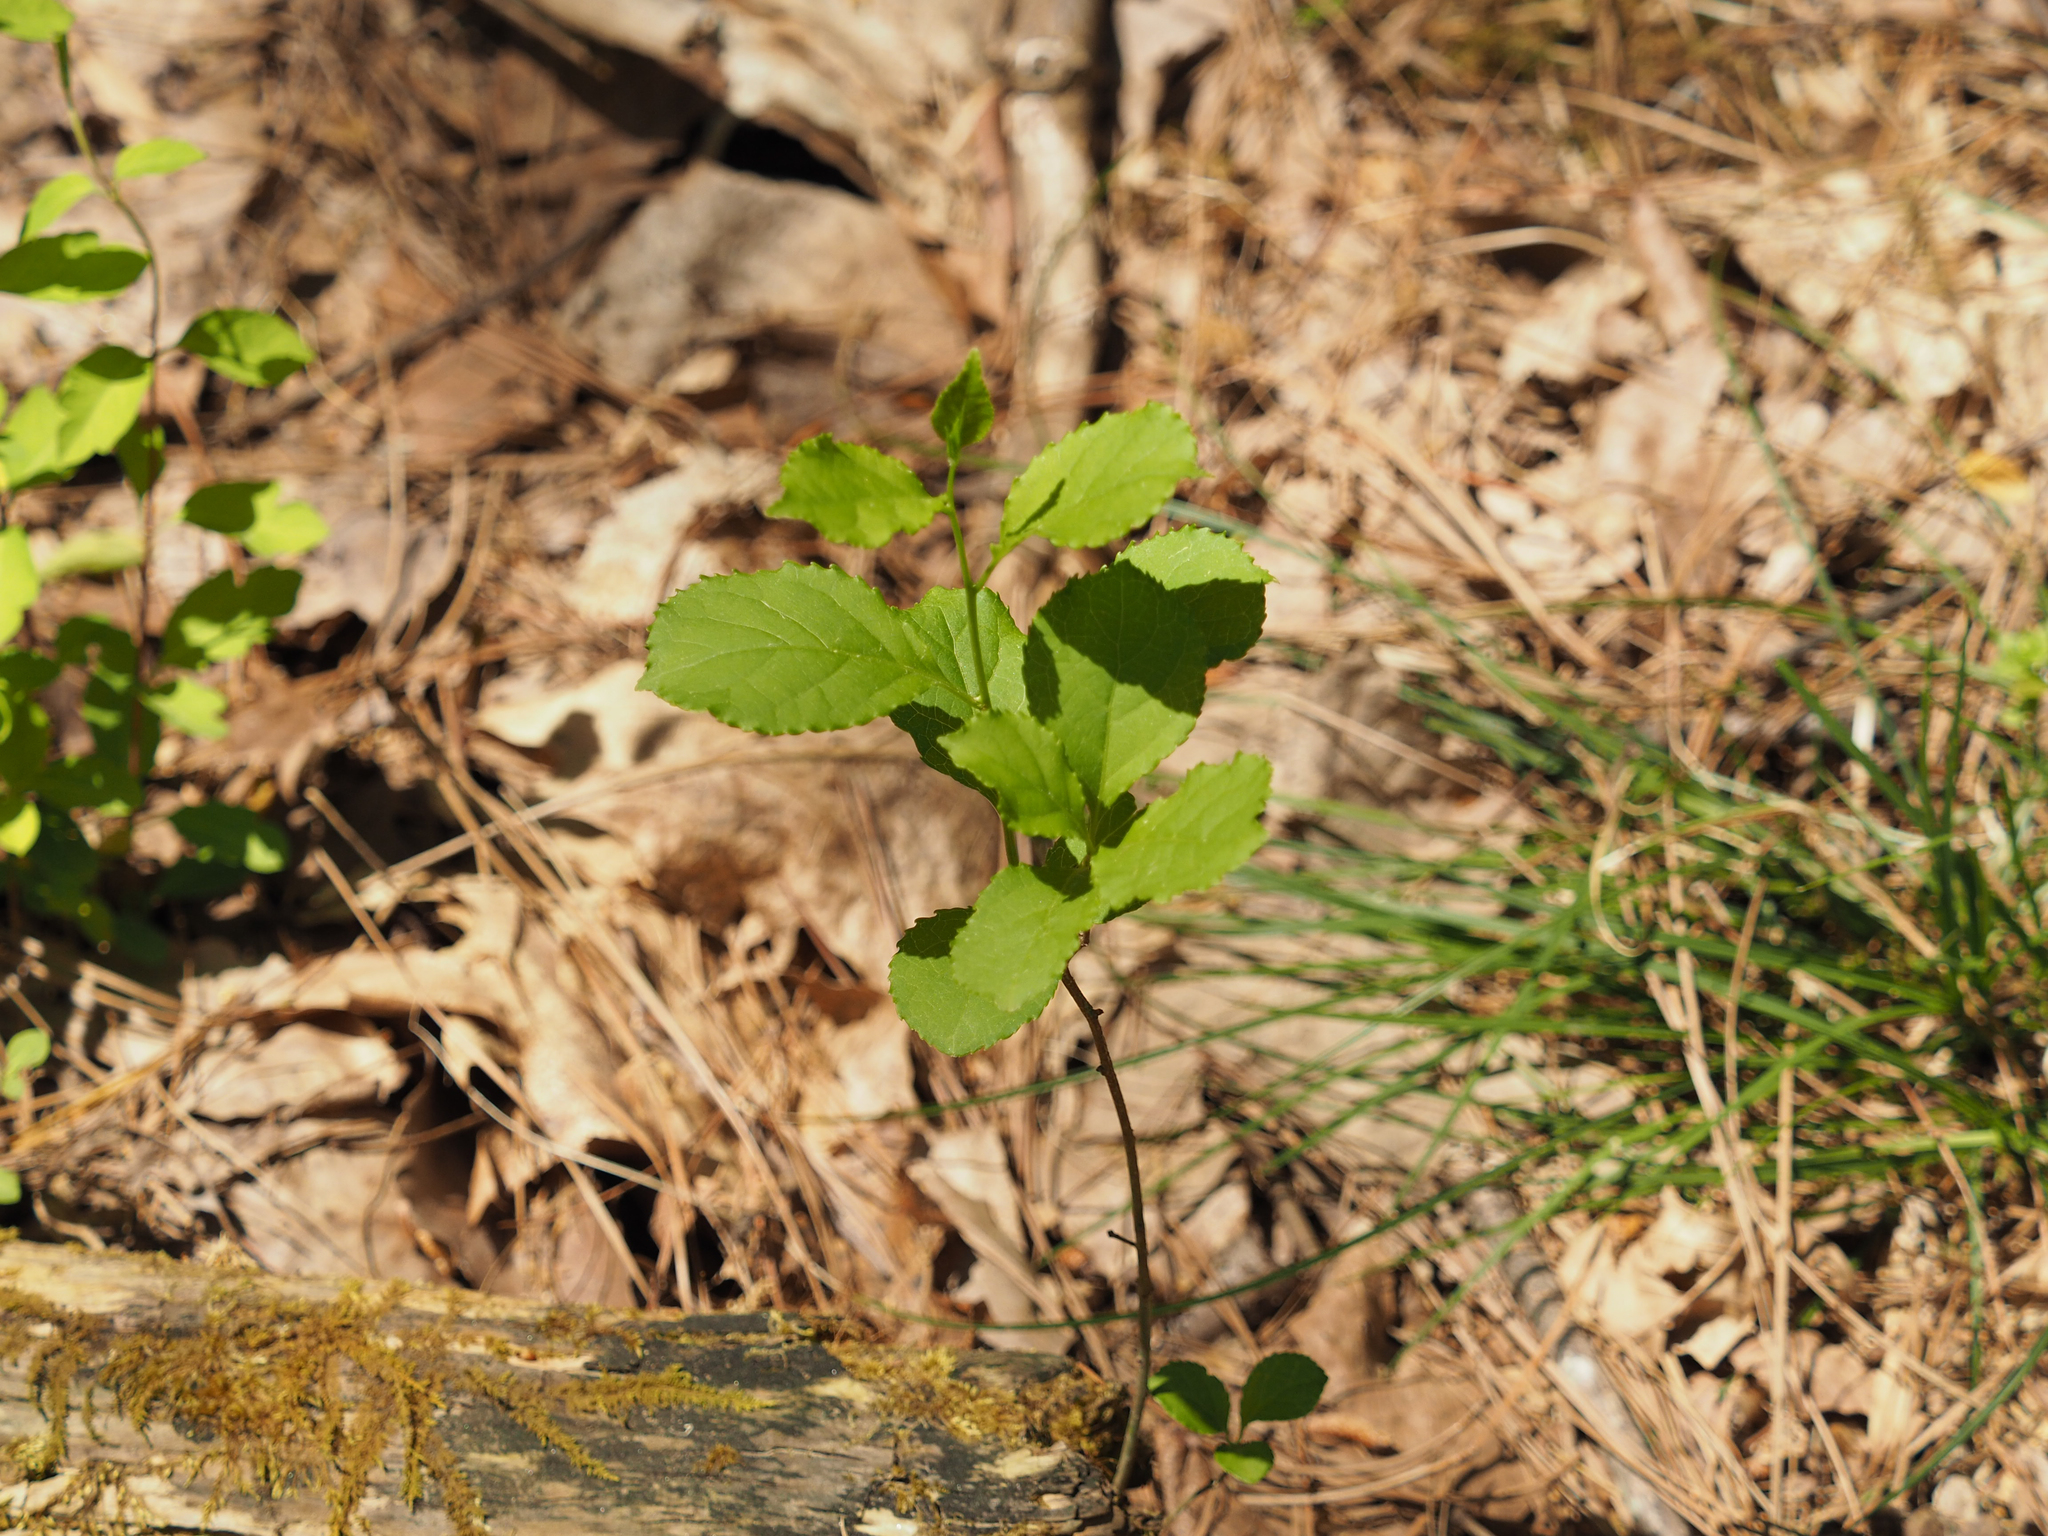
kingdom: Plantae
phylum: Tracheophyta
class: Magnoliopsida
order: Celastrales
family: Celastraceae
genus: Celastrus
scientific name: Celastrus orbiculatus
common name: Oriental bittersweet
